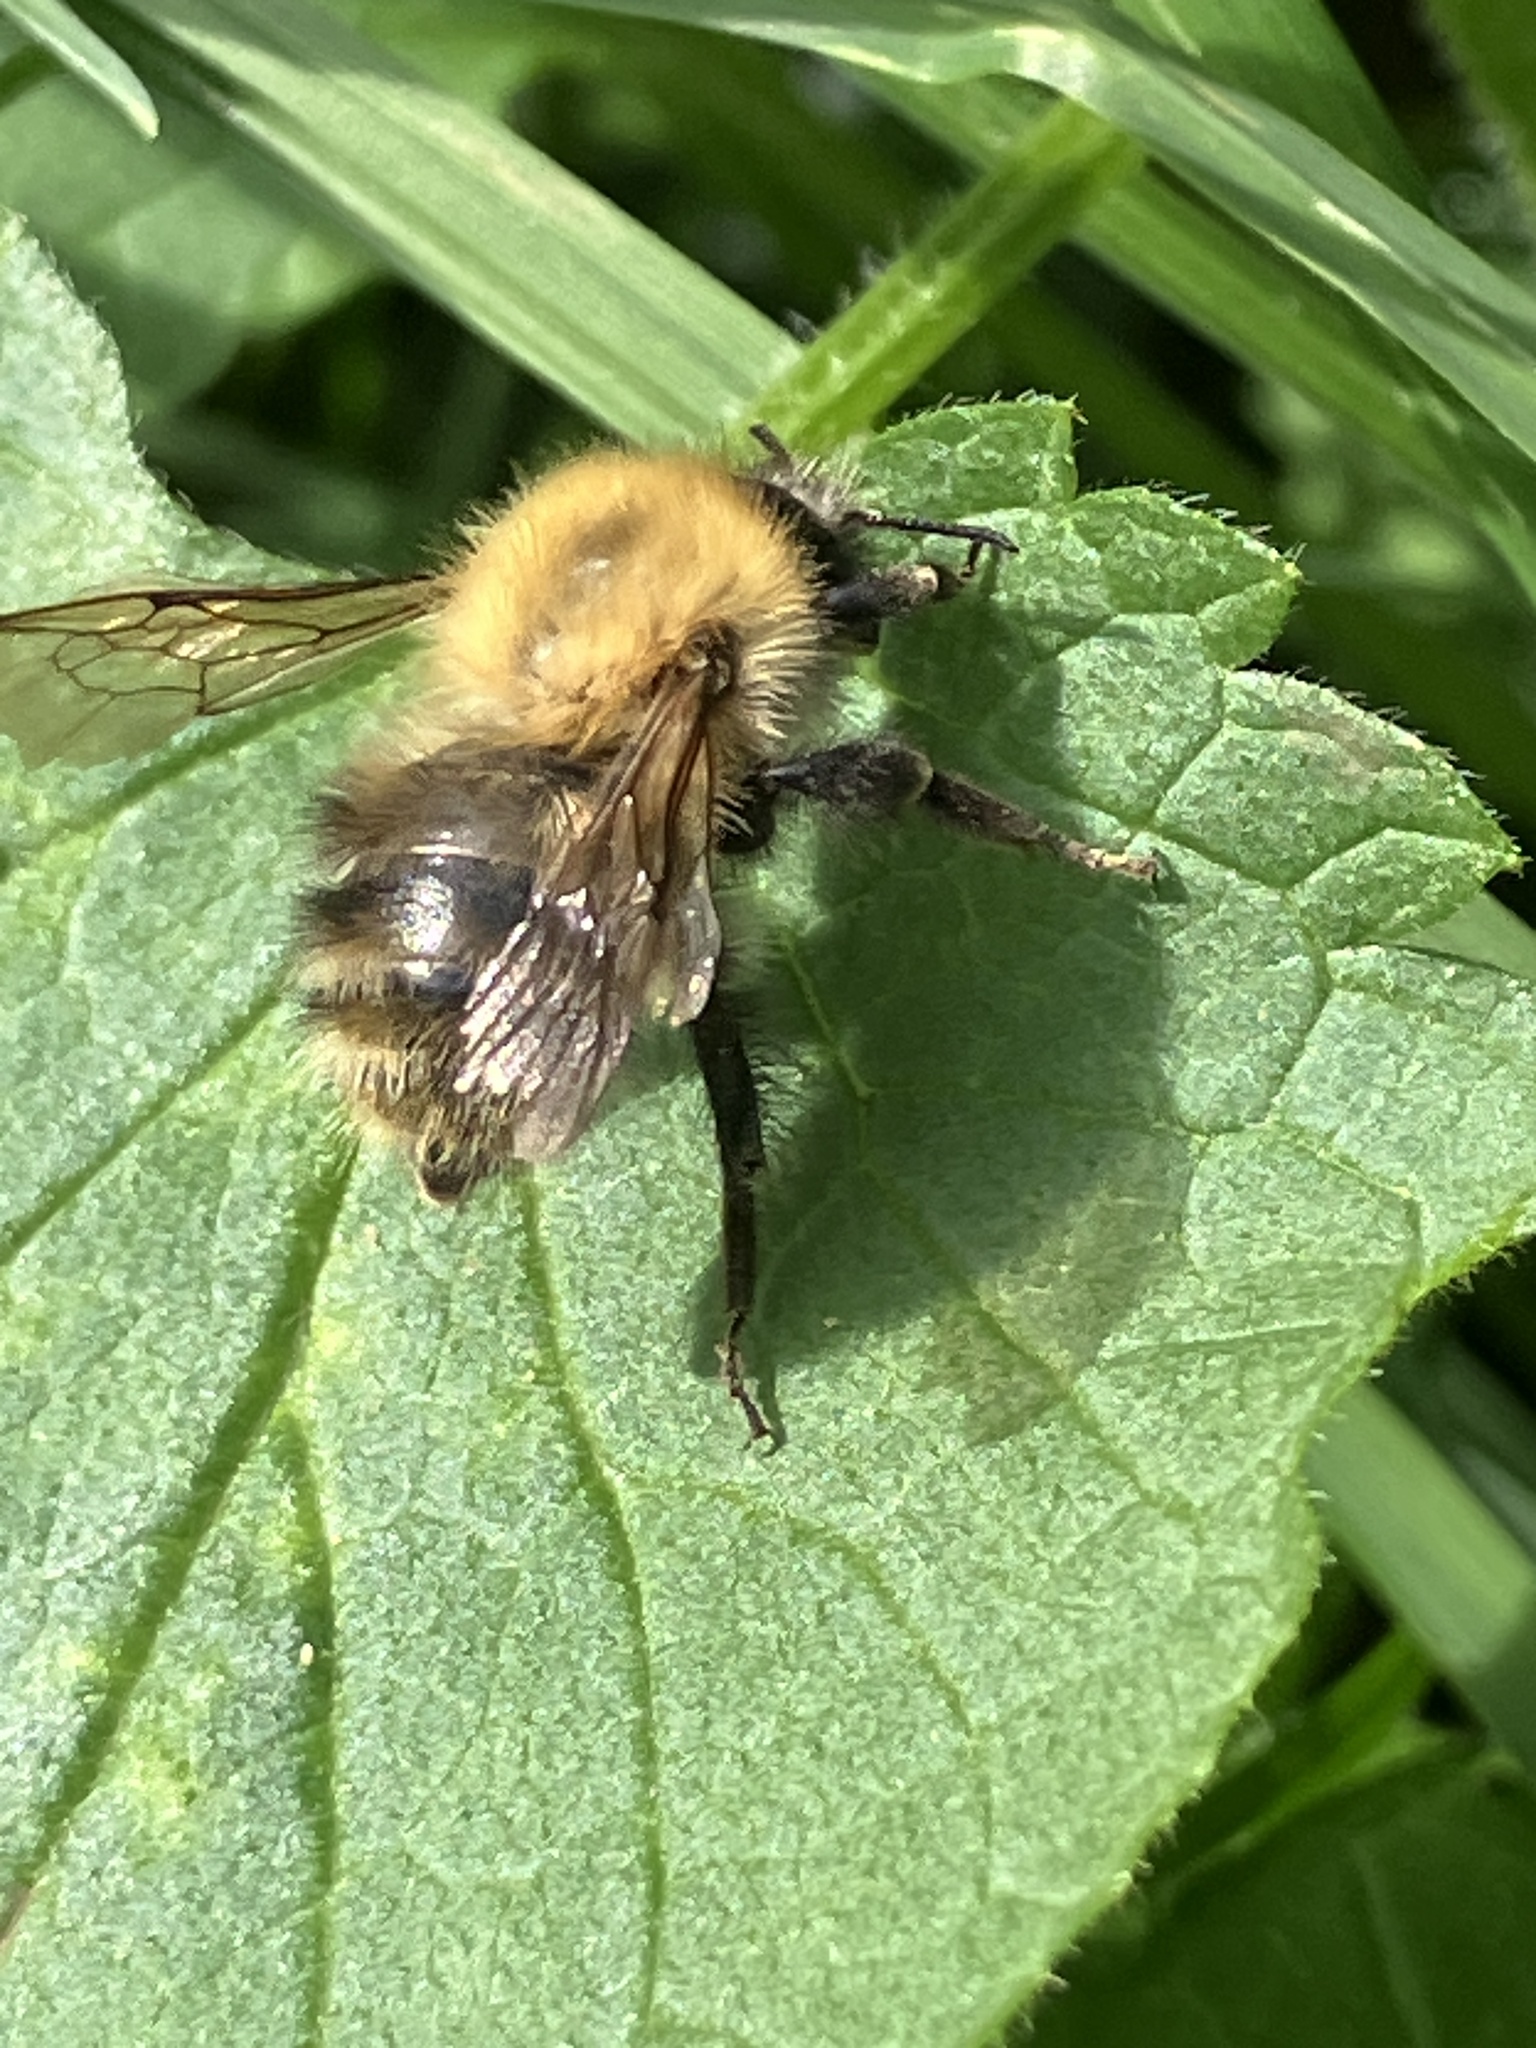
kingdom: Animalia
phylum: Arthropoda
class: Insecta
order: Hymenoptera
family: Apidae
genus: Bombus
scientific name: Bombus pascuorum
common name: Common carder bee
